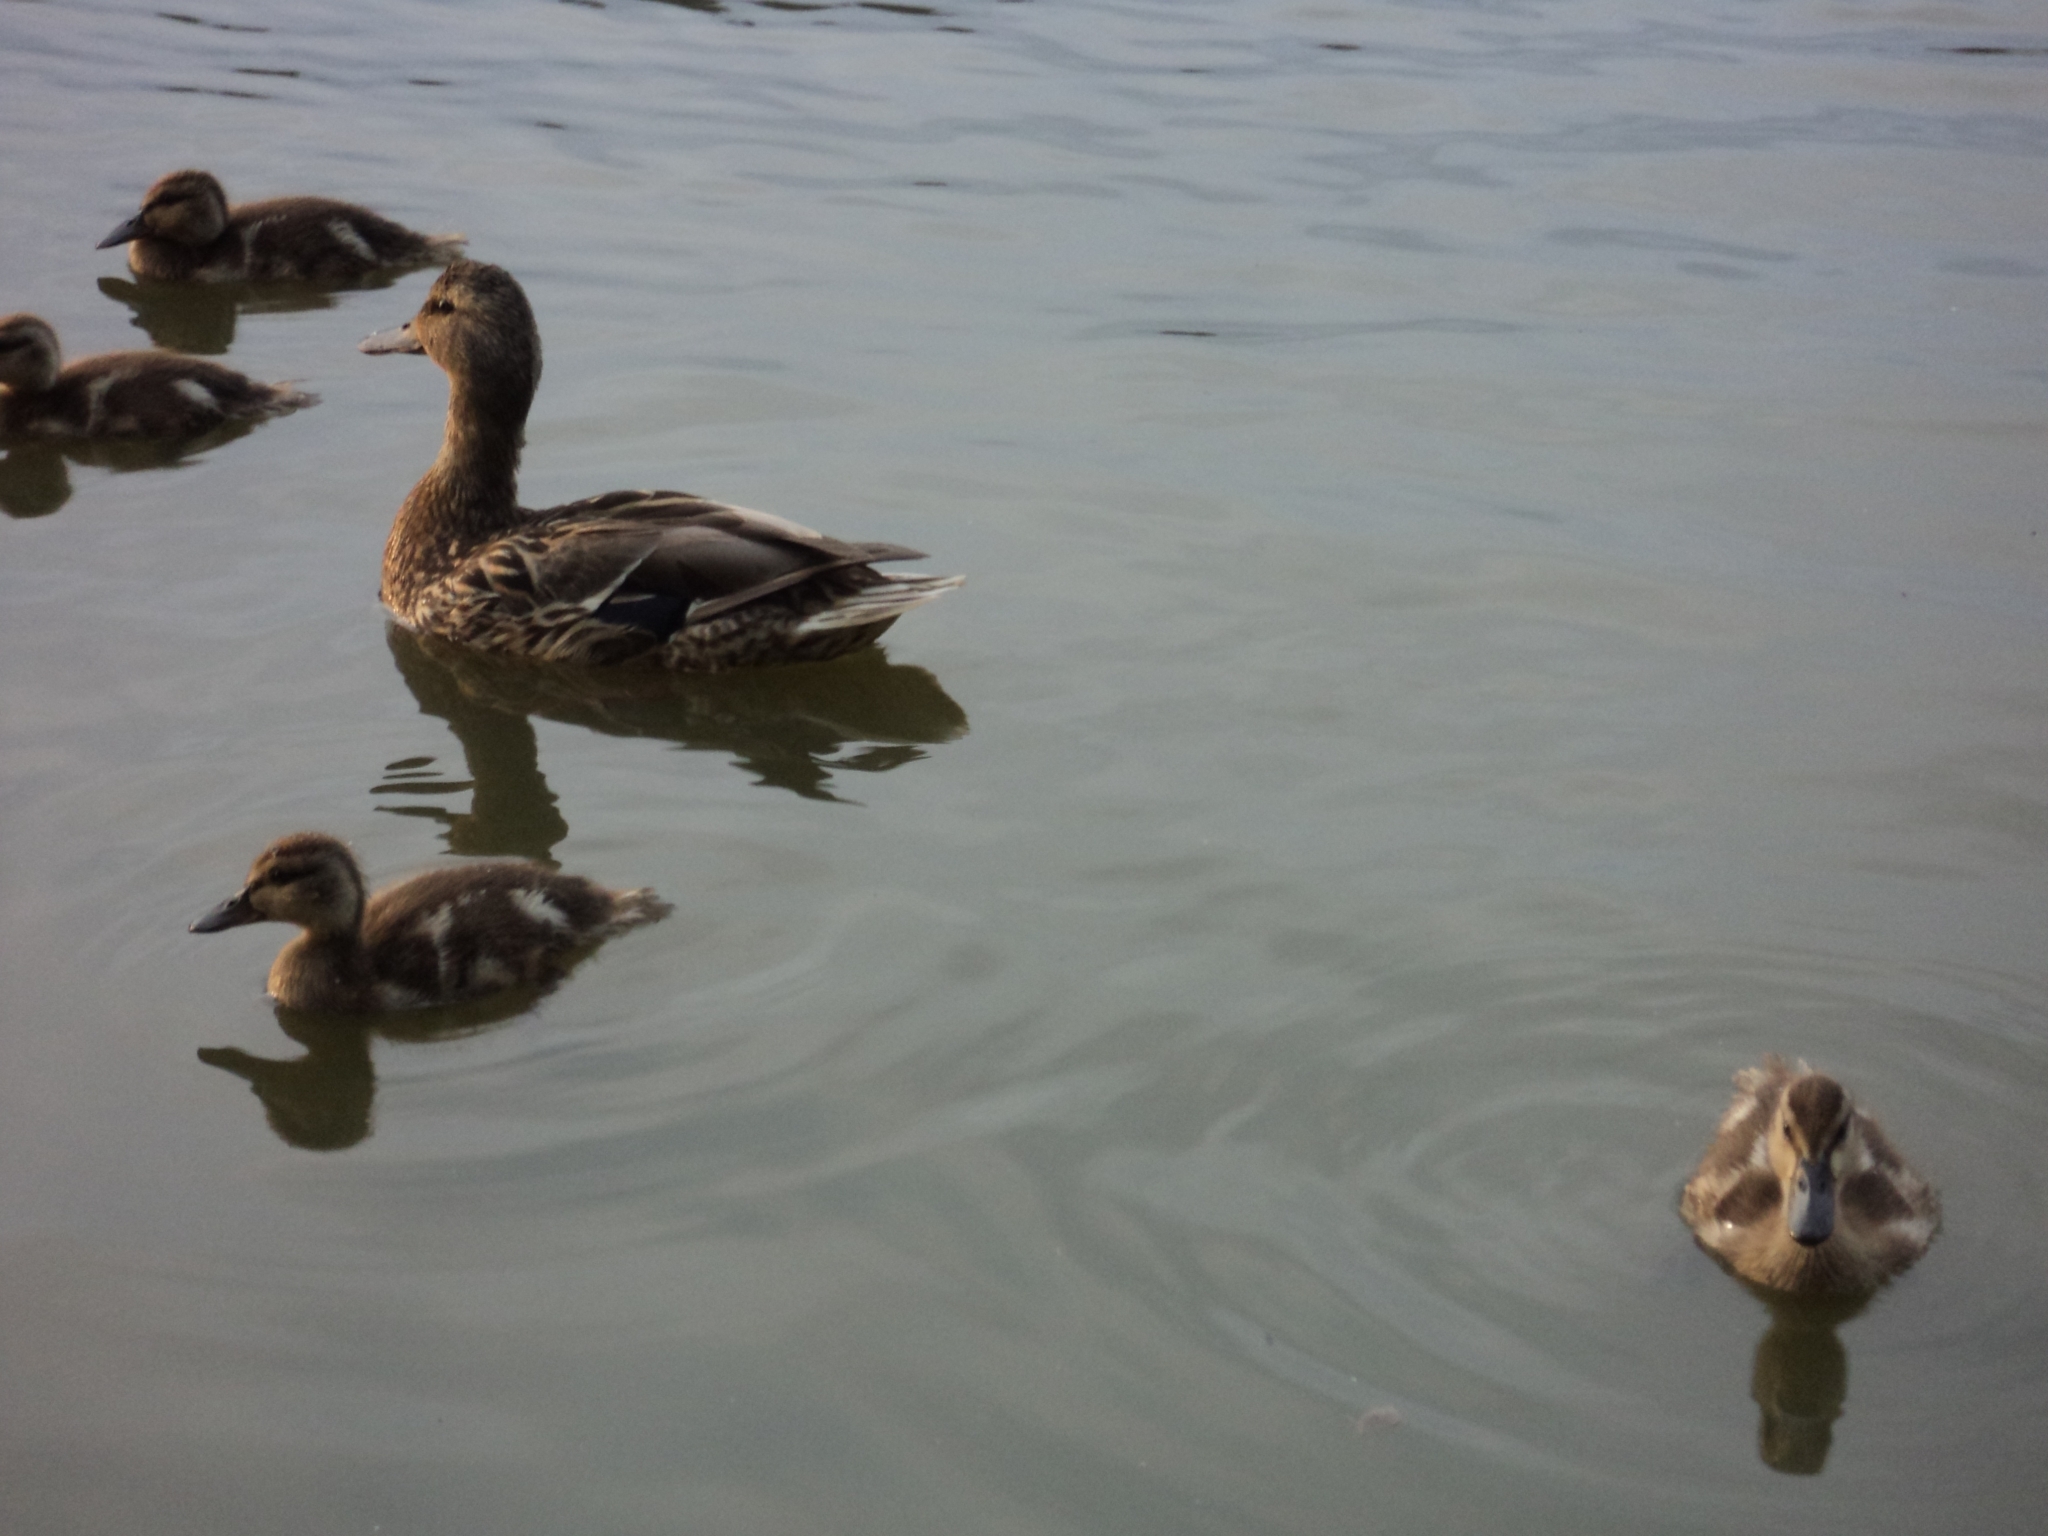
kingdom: Animalia
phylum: Chordata
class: Aves
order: Anseriformes
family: Anatidae
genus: Anas
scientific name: Anas platyrhynchos
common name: Mallard
